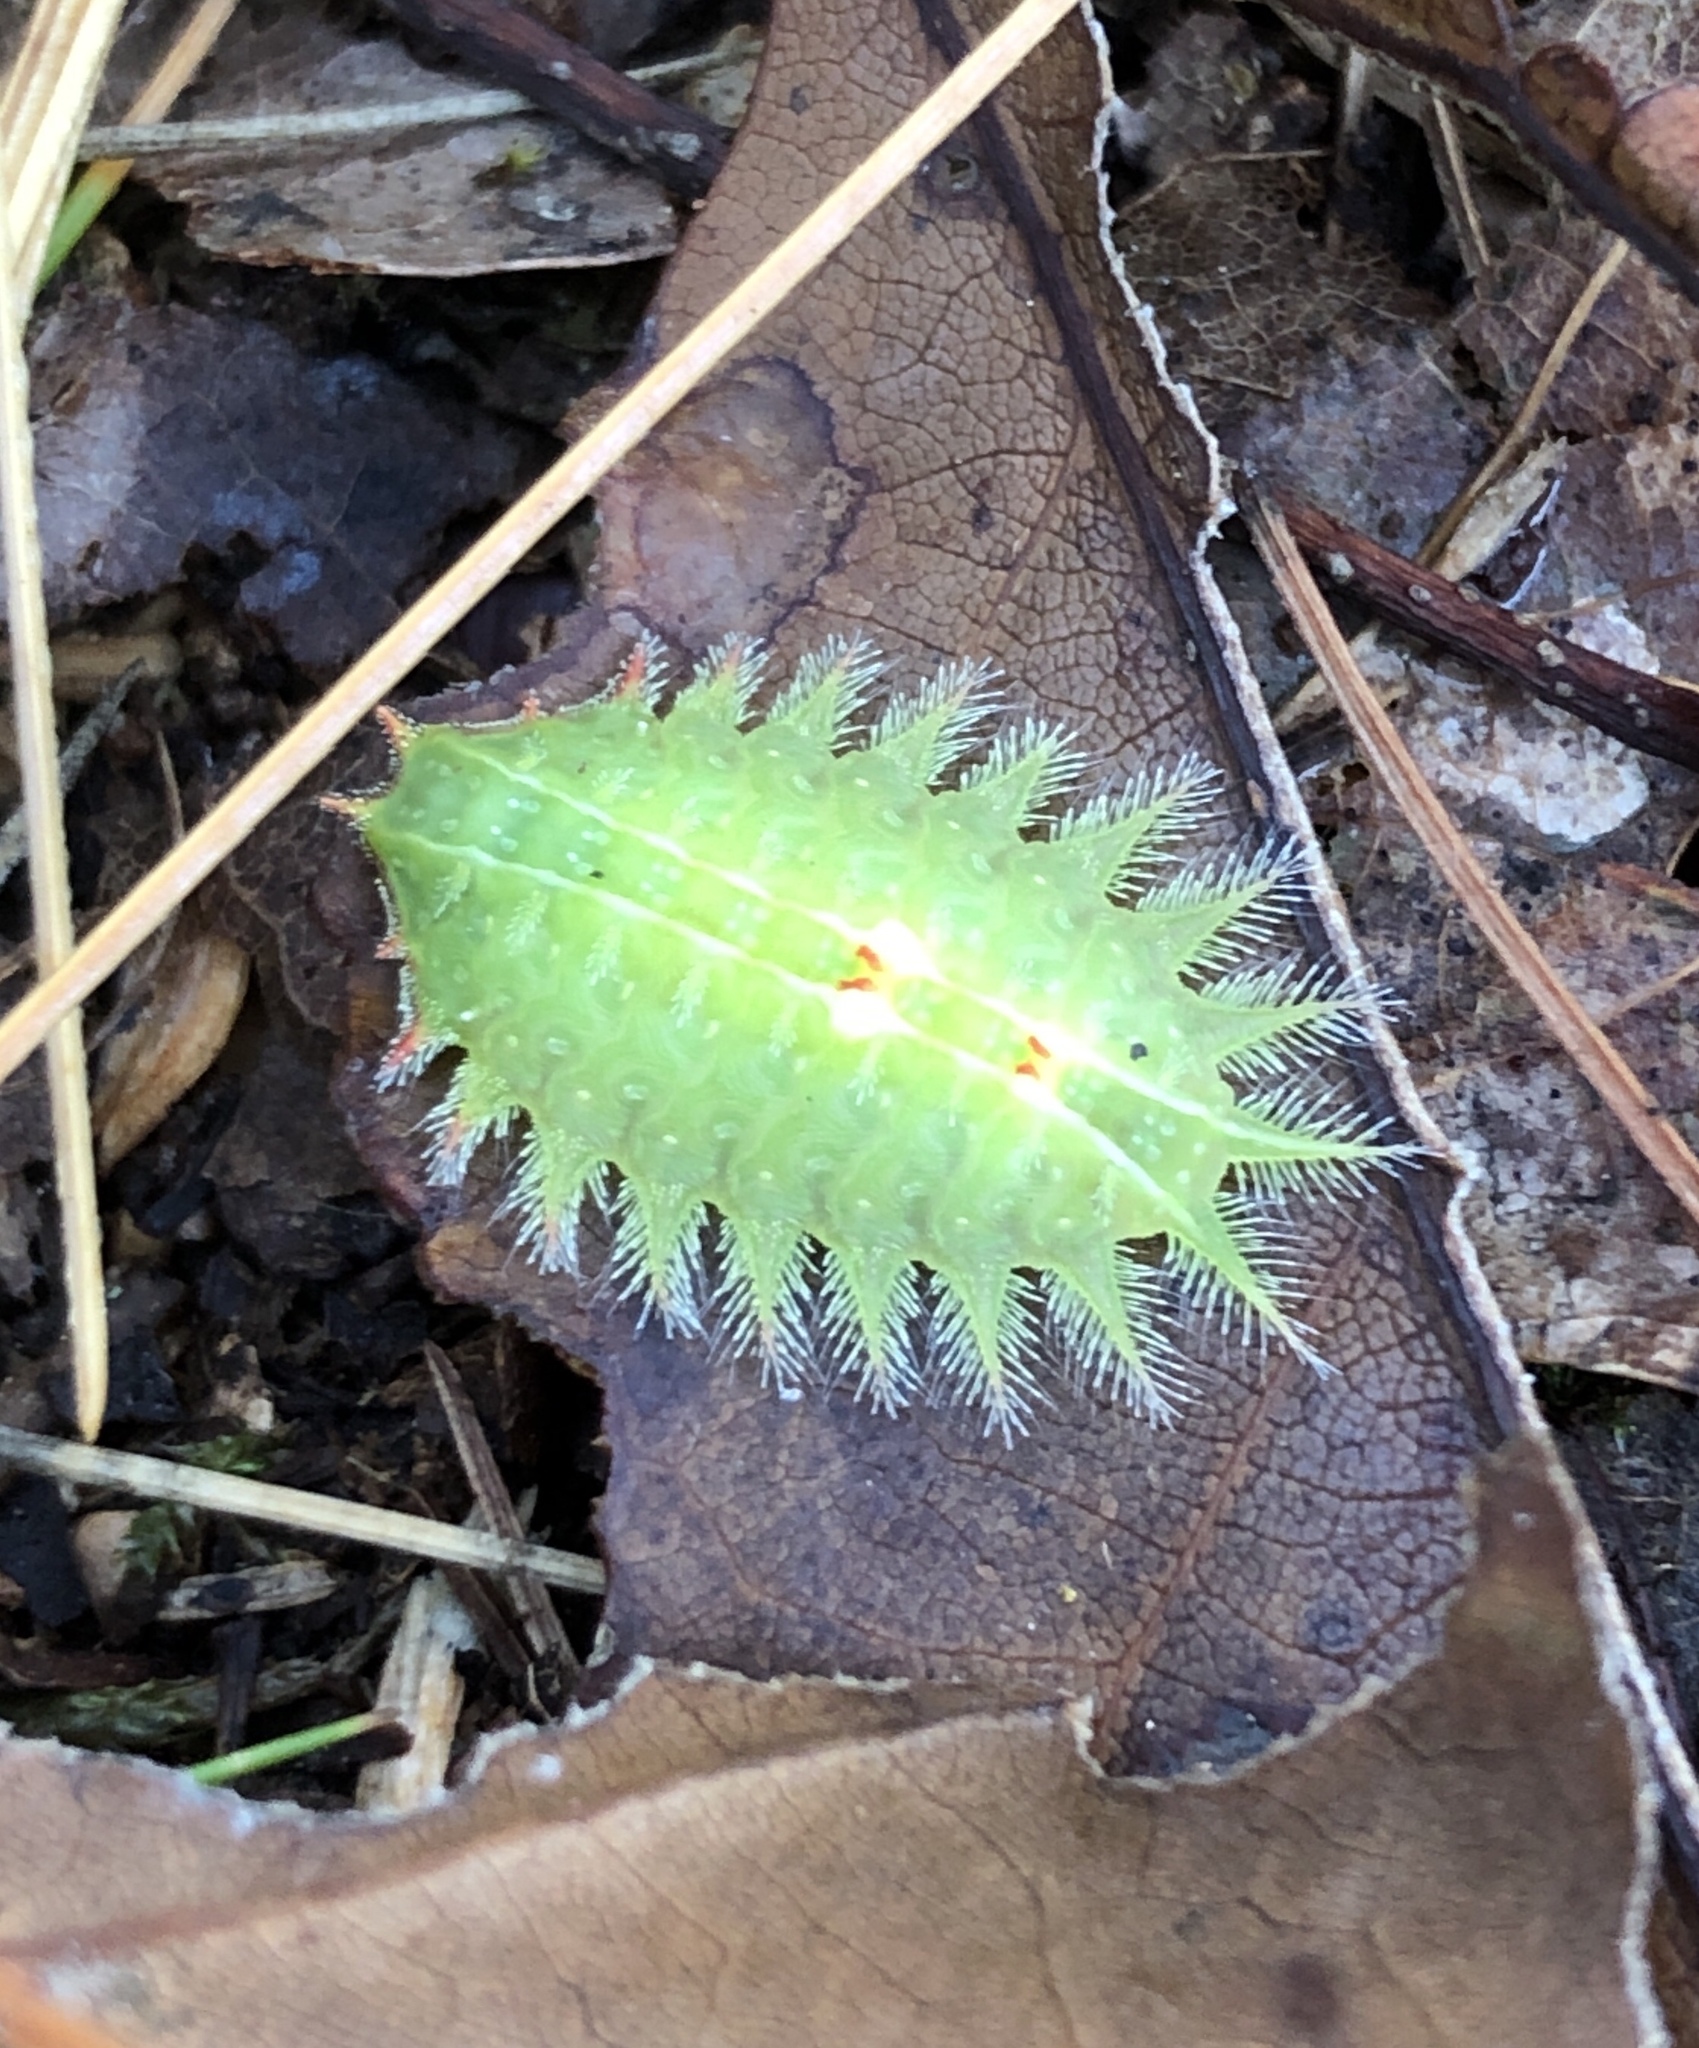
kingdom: Animalia
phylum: Arthropoda
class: Insecta
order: Lepidoptera
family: Limacodidae
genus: Isa
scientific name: Isa textula
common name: Crowned slug moth
